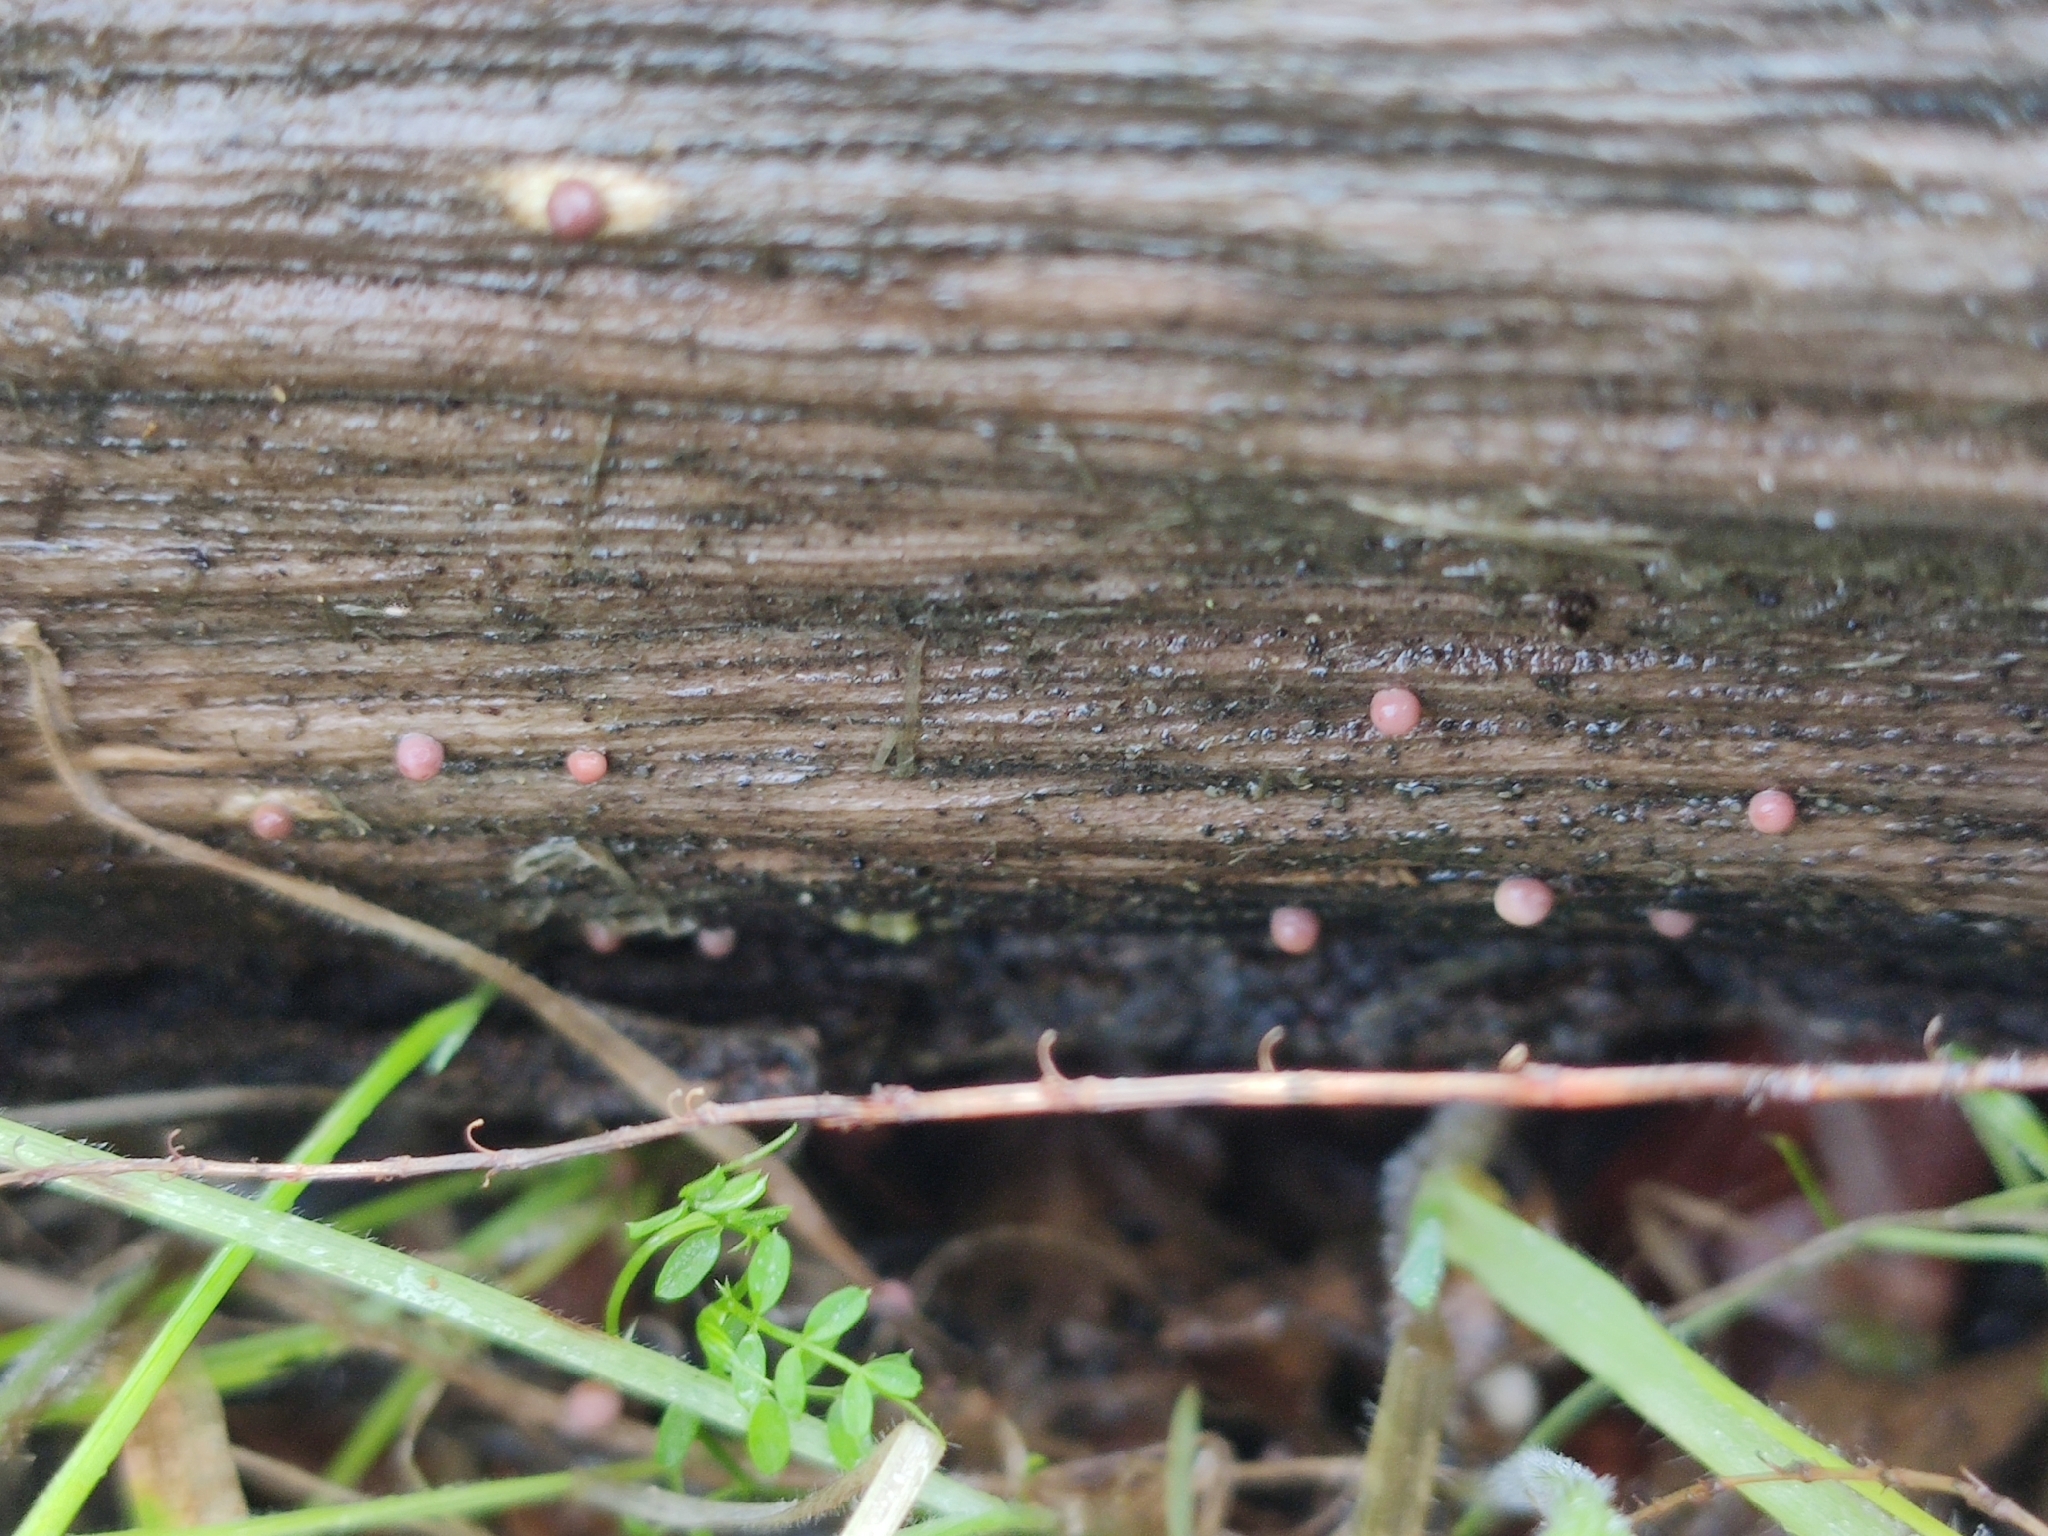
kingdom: Protozoa
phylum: Mycetozoa
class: Myxomycetes
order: Cribrariales
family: Tubiferaceae
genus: Lycogala
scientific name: Lycogala epidendrum
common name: Wolf's milk
